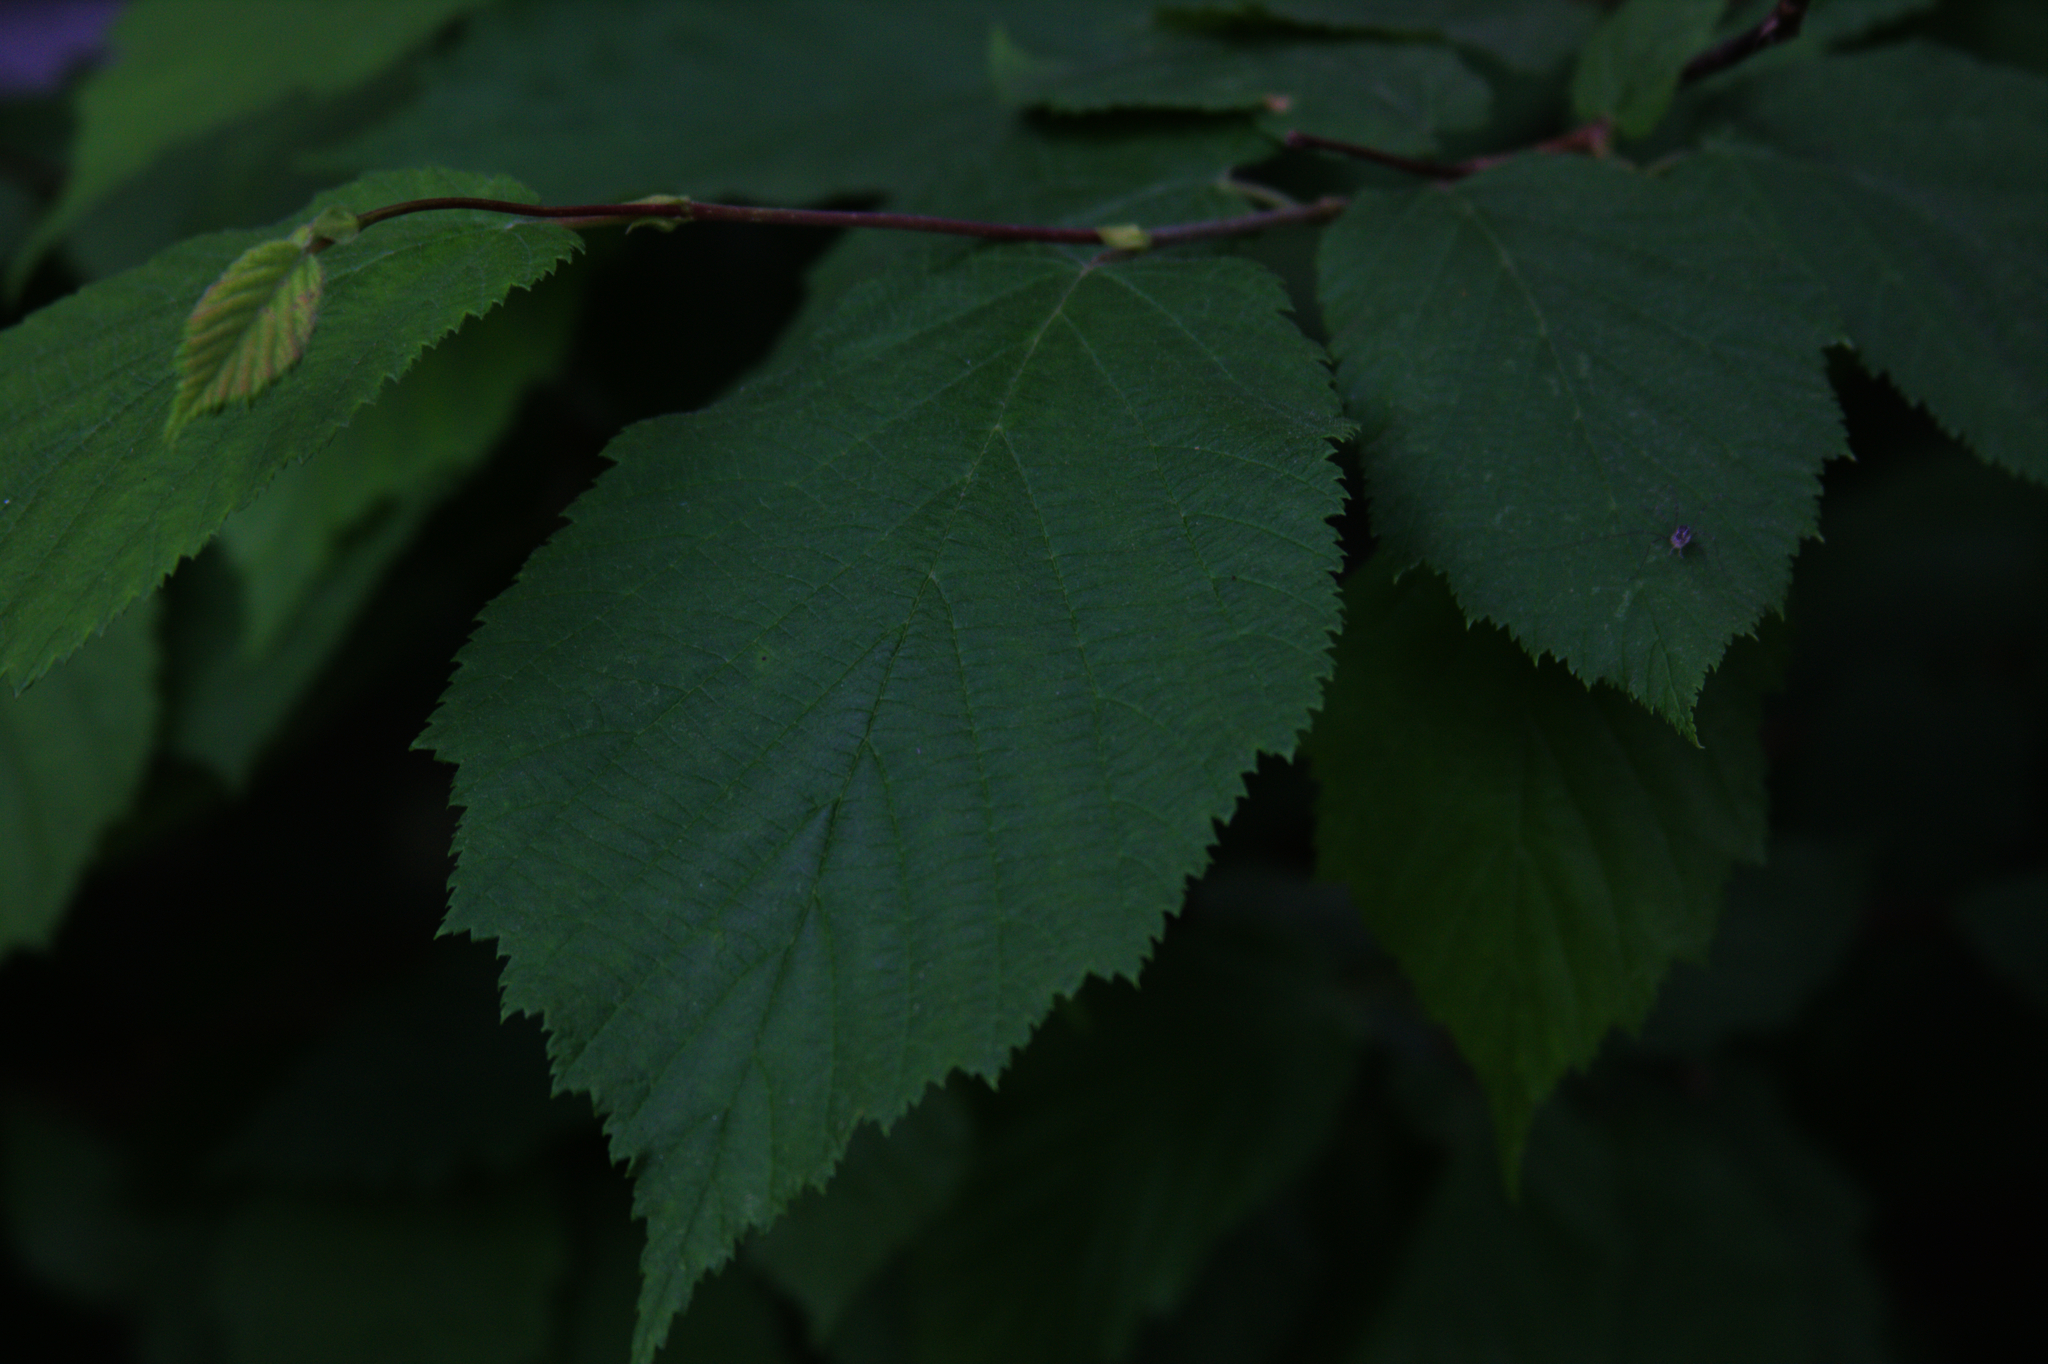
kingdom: Plantae
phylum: Tracheophyta
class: Magnoliopsida
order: Fagales
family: Betulaceae
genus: Corylus
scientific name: Corylus cornuta
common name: Beaked hazel
